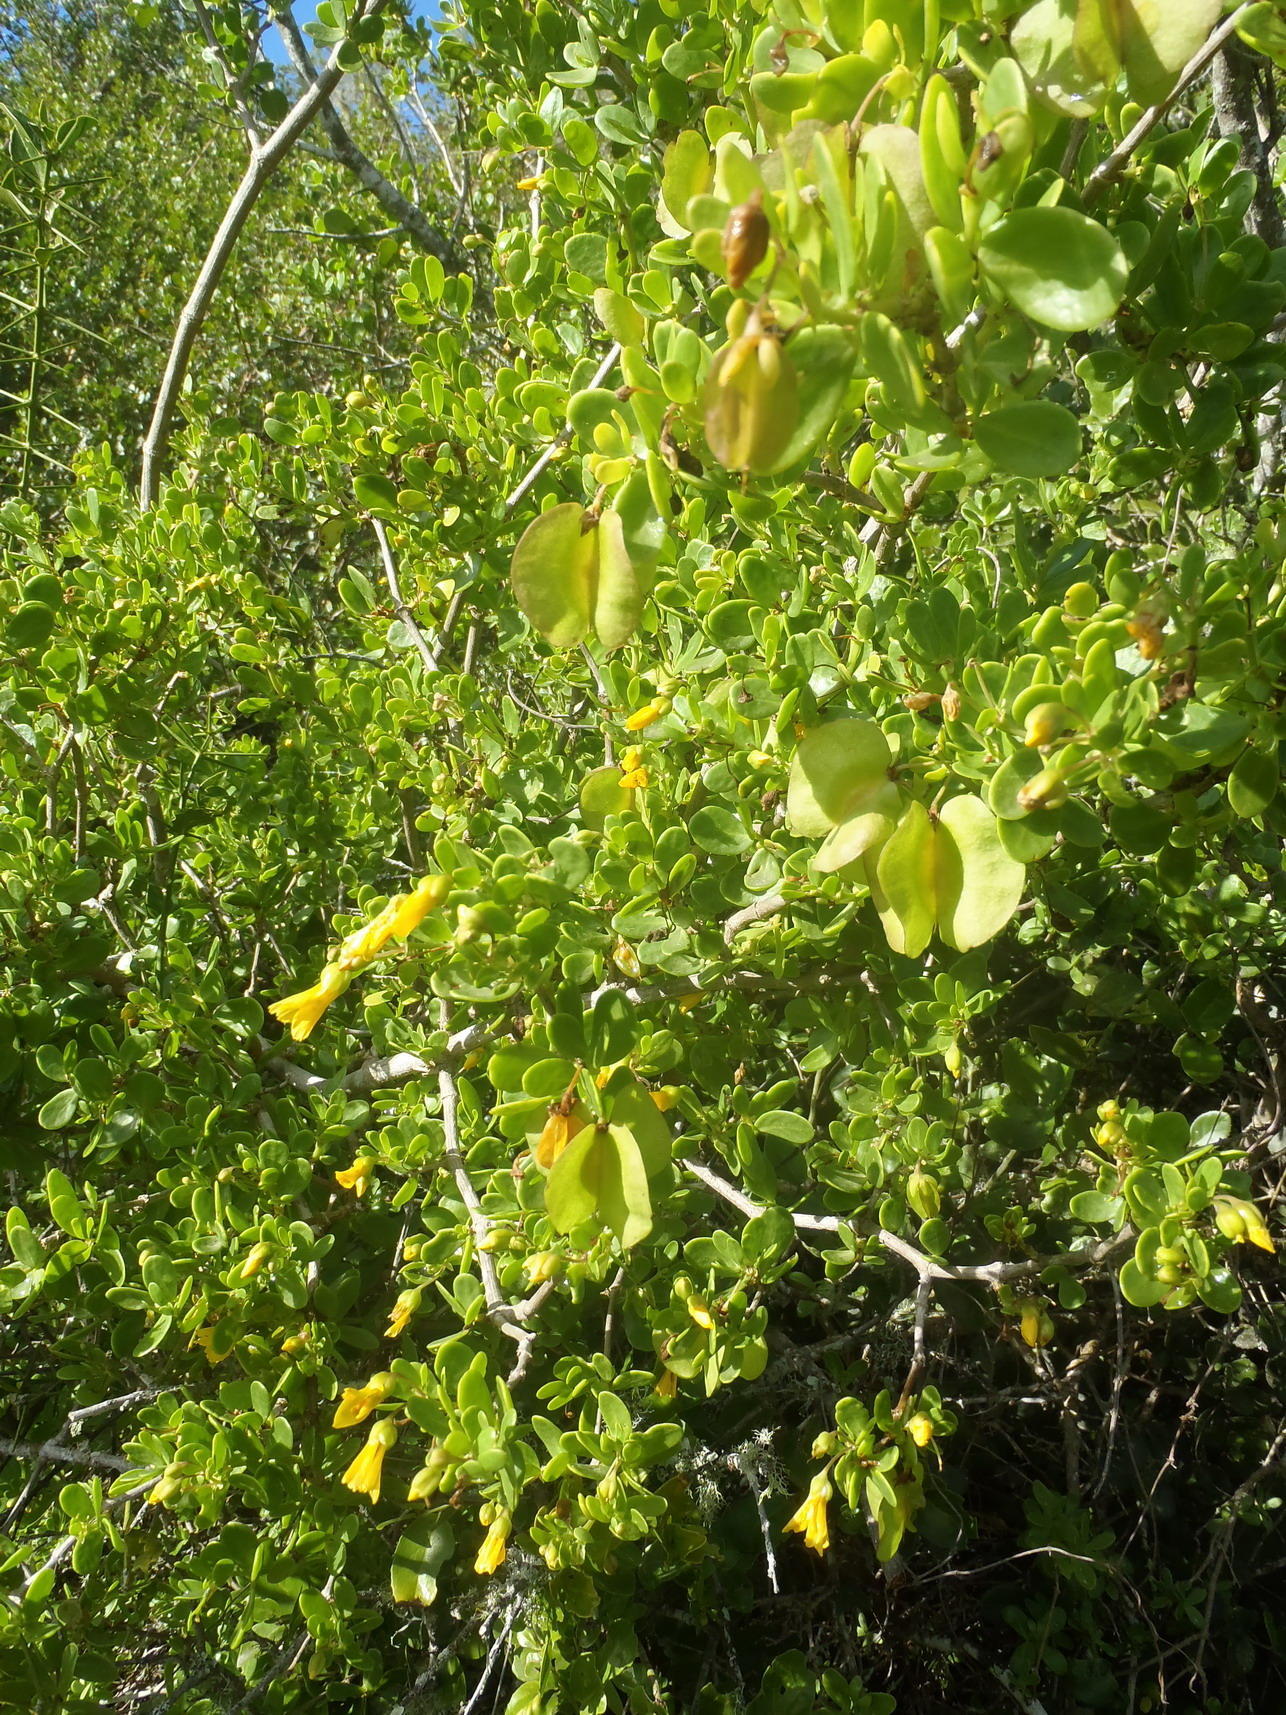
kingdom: Plantae
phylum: Tracheophyta
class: Magnoliopsida
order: Zygophyllales
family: Zygophyllaceae
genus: Roepera
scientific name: Roepera morgsana
